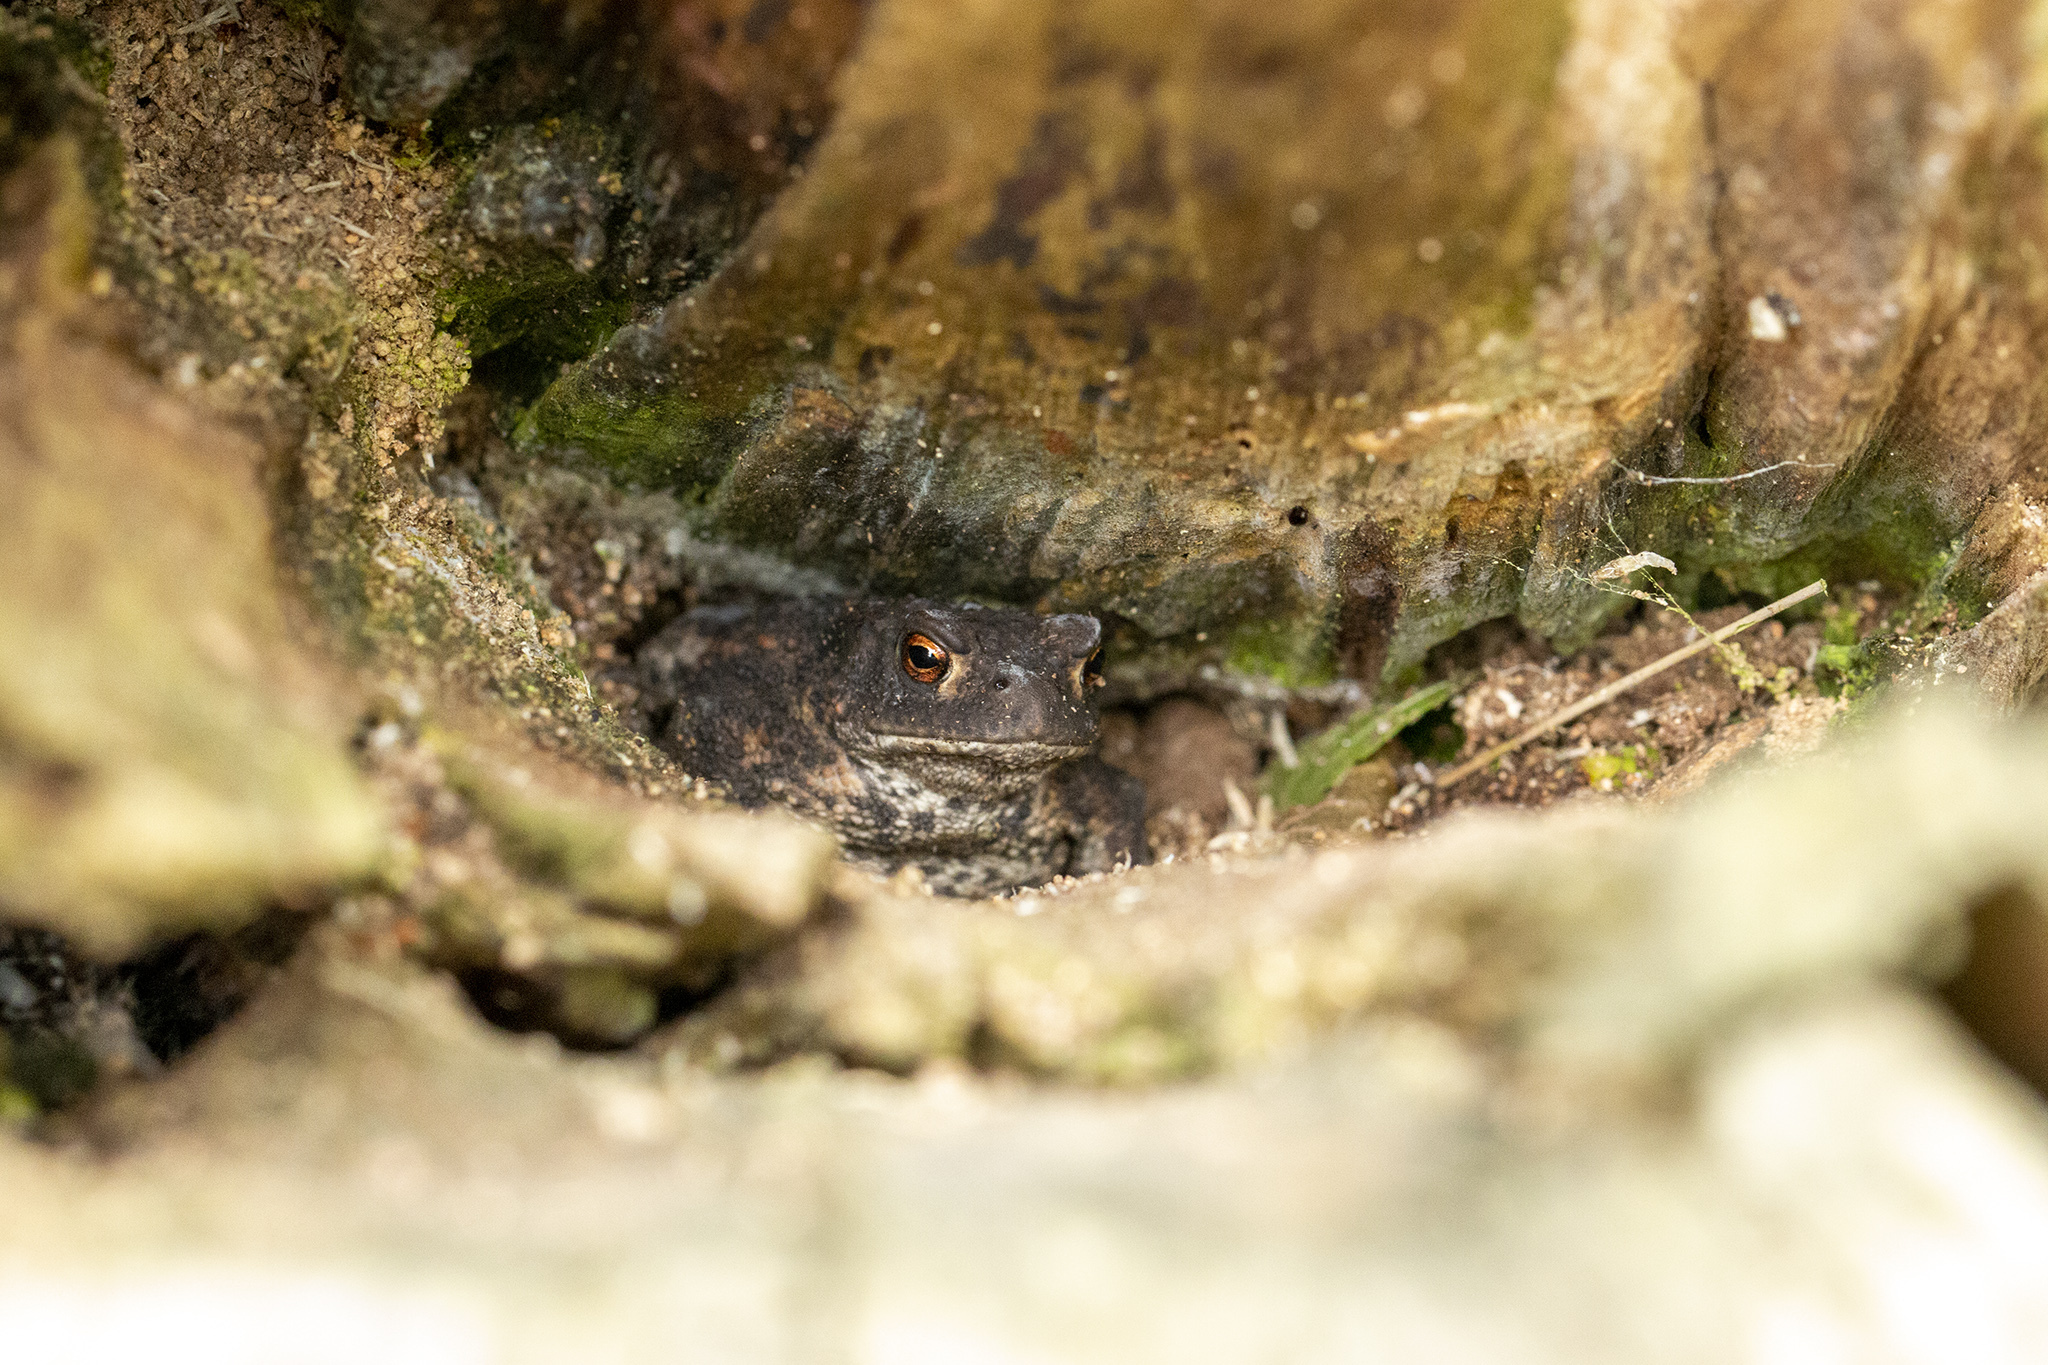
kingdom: Animalia
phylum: Chordata
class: Amphibia
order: Anura
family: Bufonidae
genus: Bufo
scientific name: Bufo bufo
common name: Common toad
